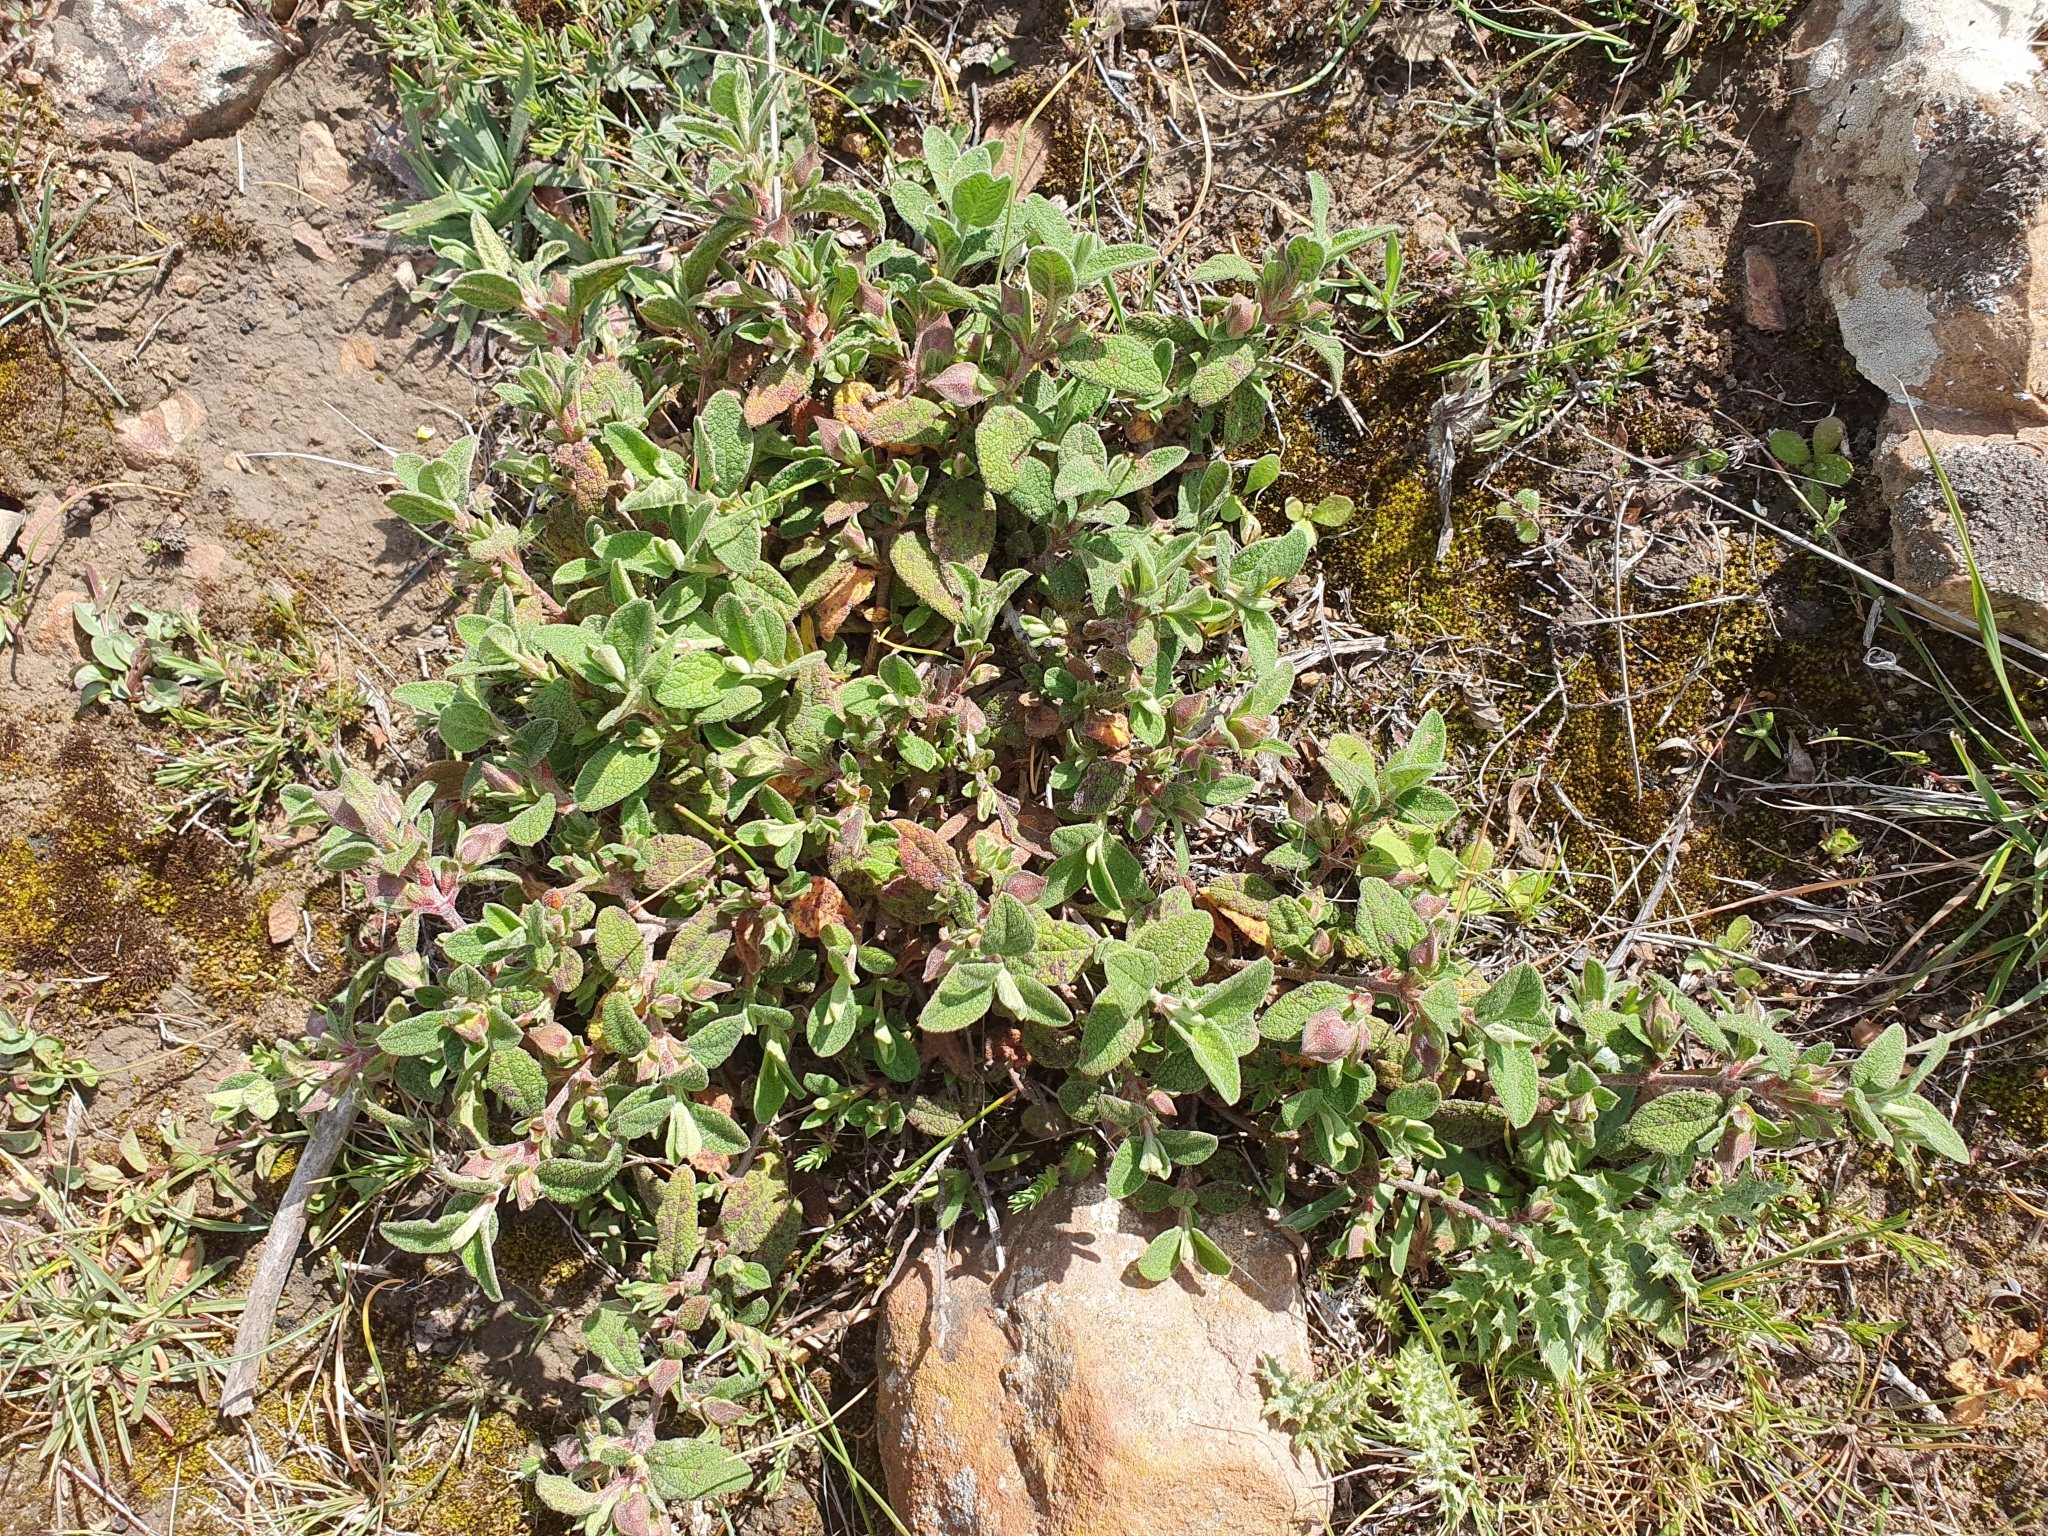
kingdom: Plantae
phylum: Tracheophyta
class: Magnoliopsida
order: Malvales
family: Cistaceae
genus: Cistus
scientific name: Cistus salviifolius
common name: Salvia cistus
